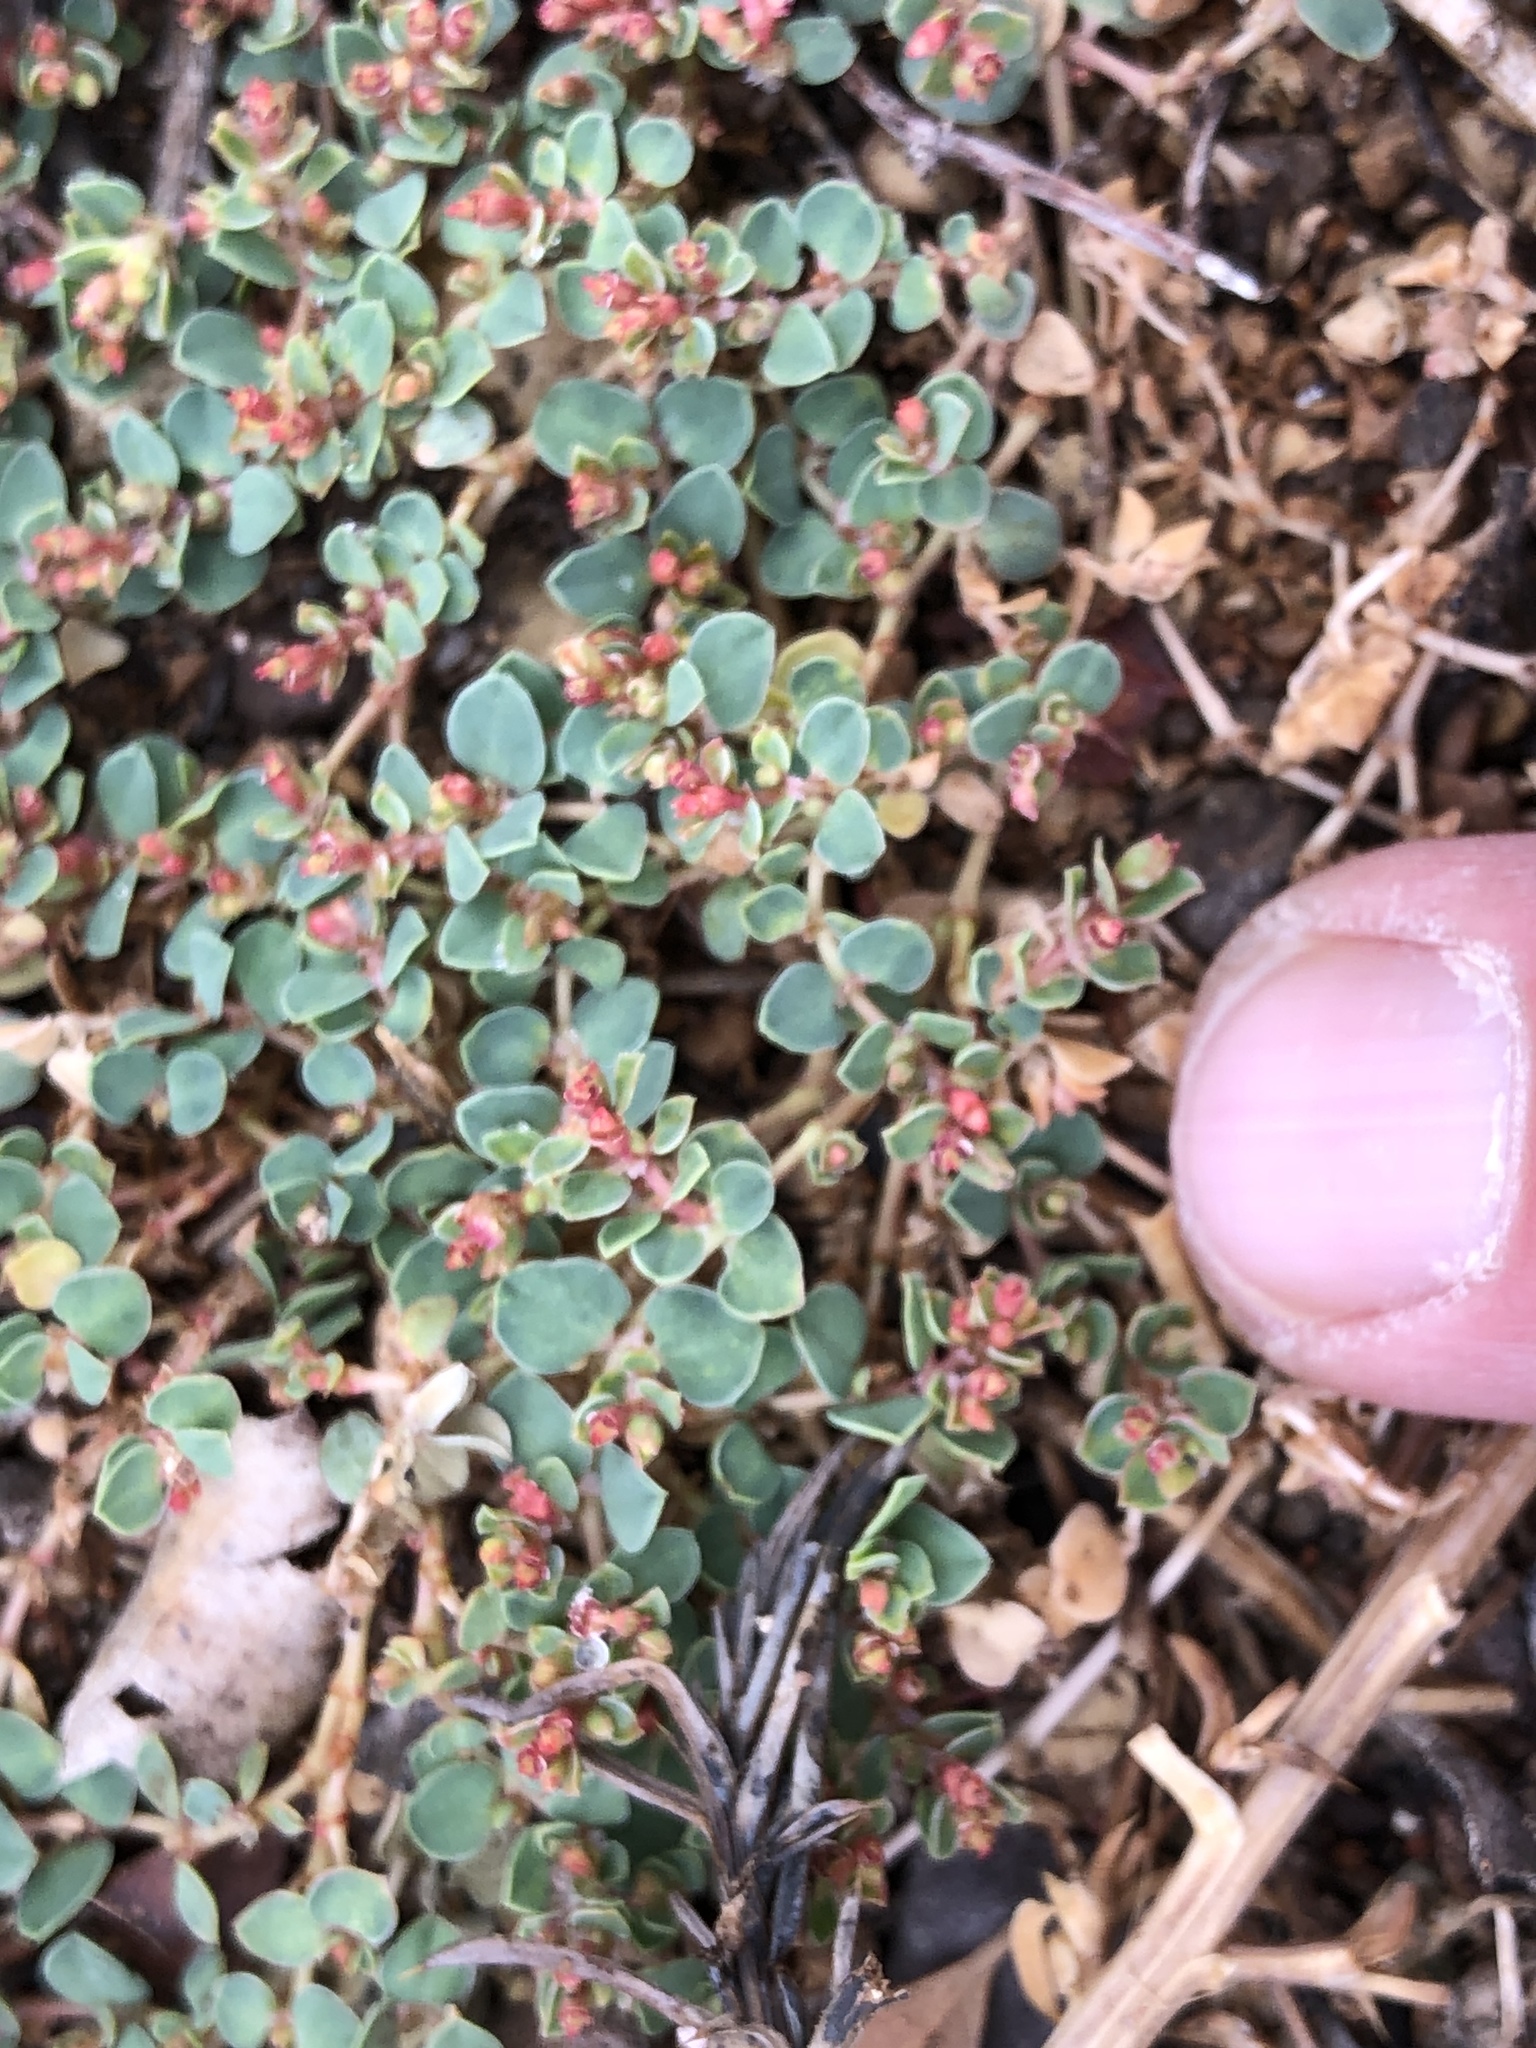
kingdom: Plantae
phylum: Tracheophyta
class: Magnoliopsida
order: Malpighiales
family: Euphorbiaceae
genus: Euphorbia
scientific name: Euphorbia albomarginata
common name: Whitemargin sandmat
